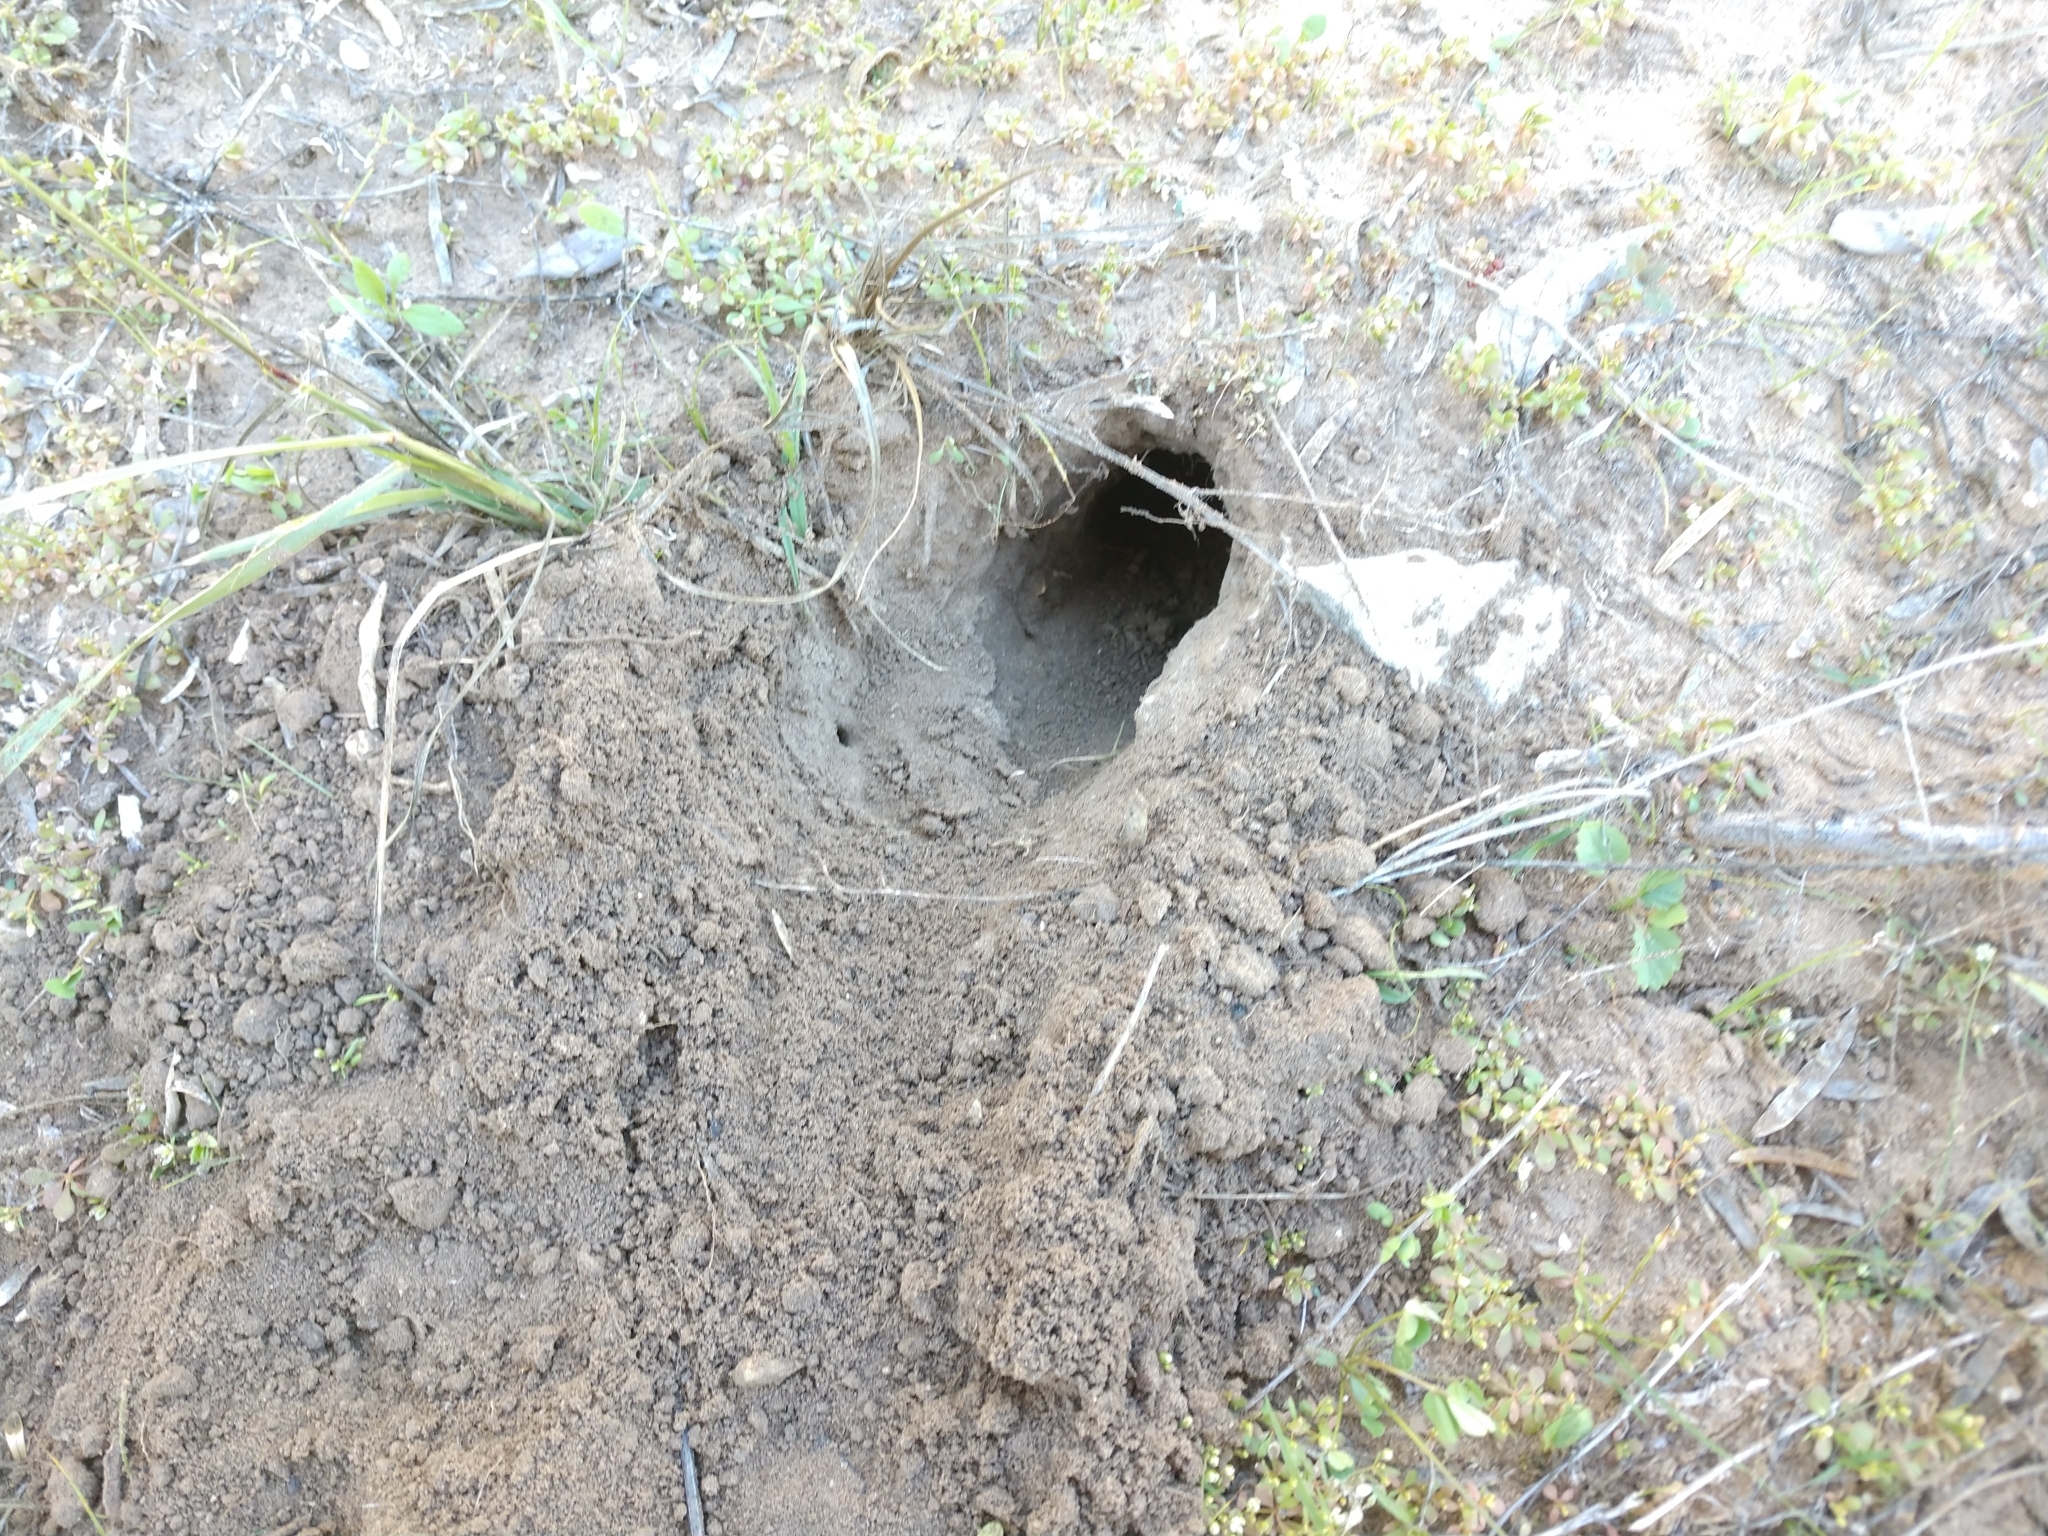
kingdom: Animalia
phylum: Chordata
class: Mammalia
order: Rodentia
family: Geomyidae
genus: Geomys
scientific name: Geomys attwateri
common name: Attwater's pocket gopher
